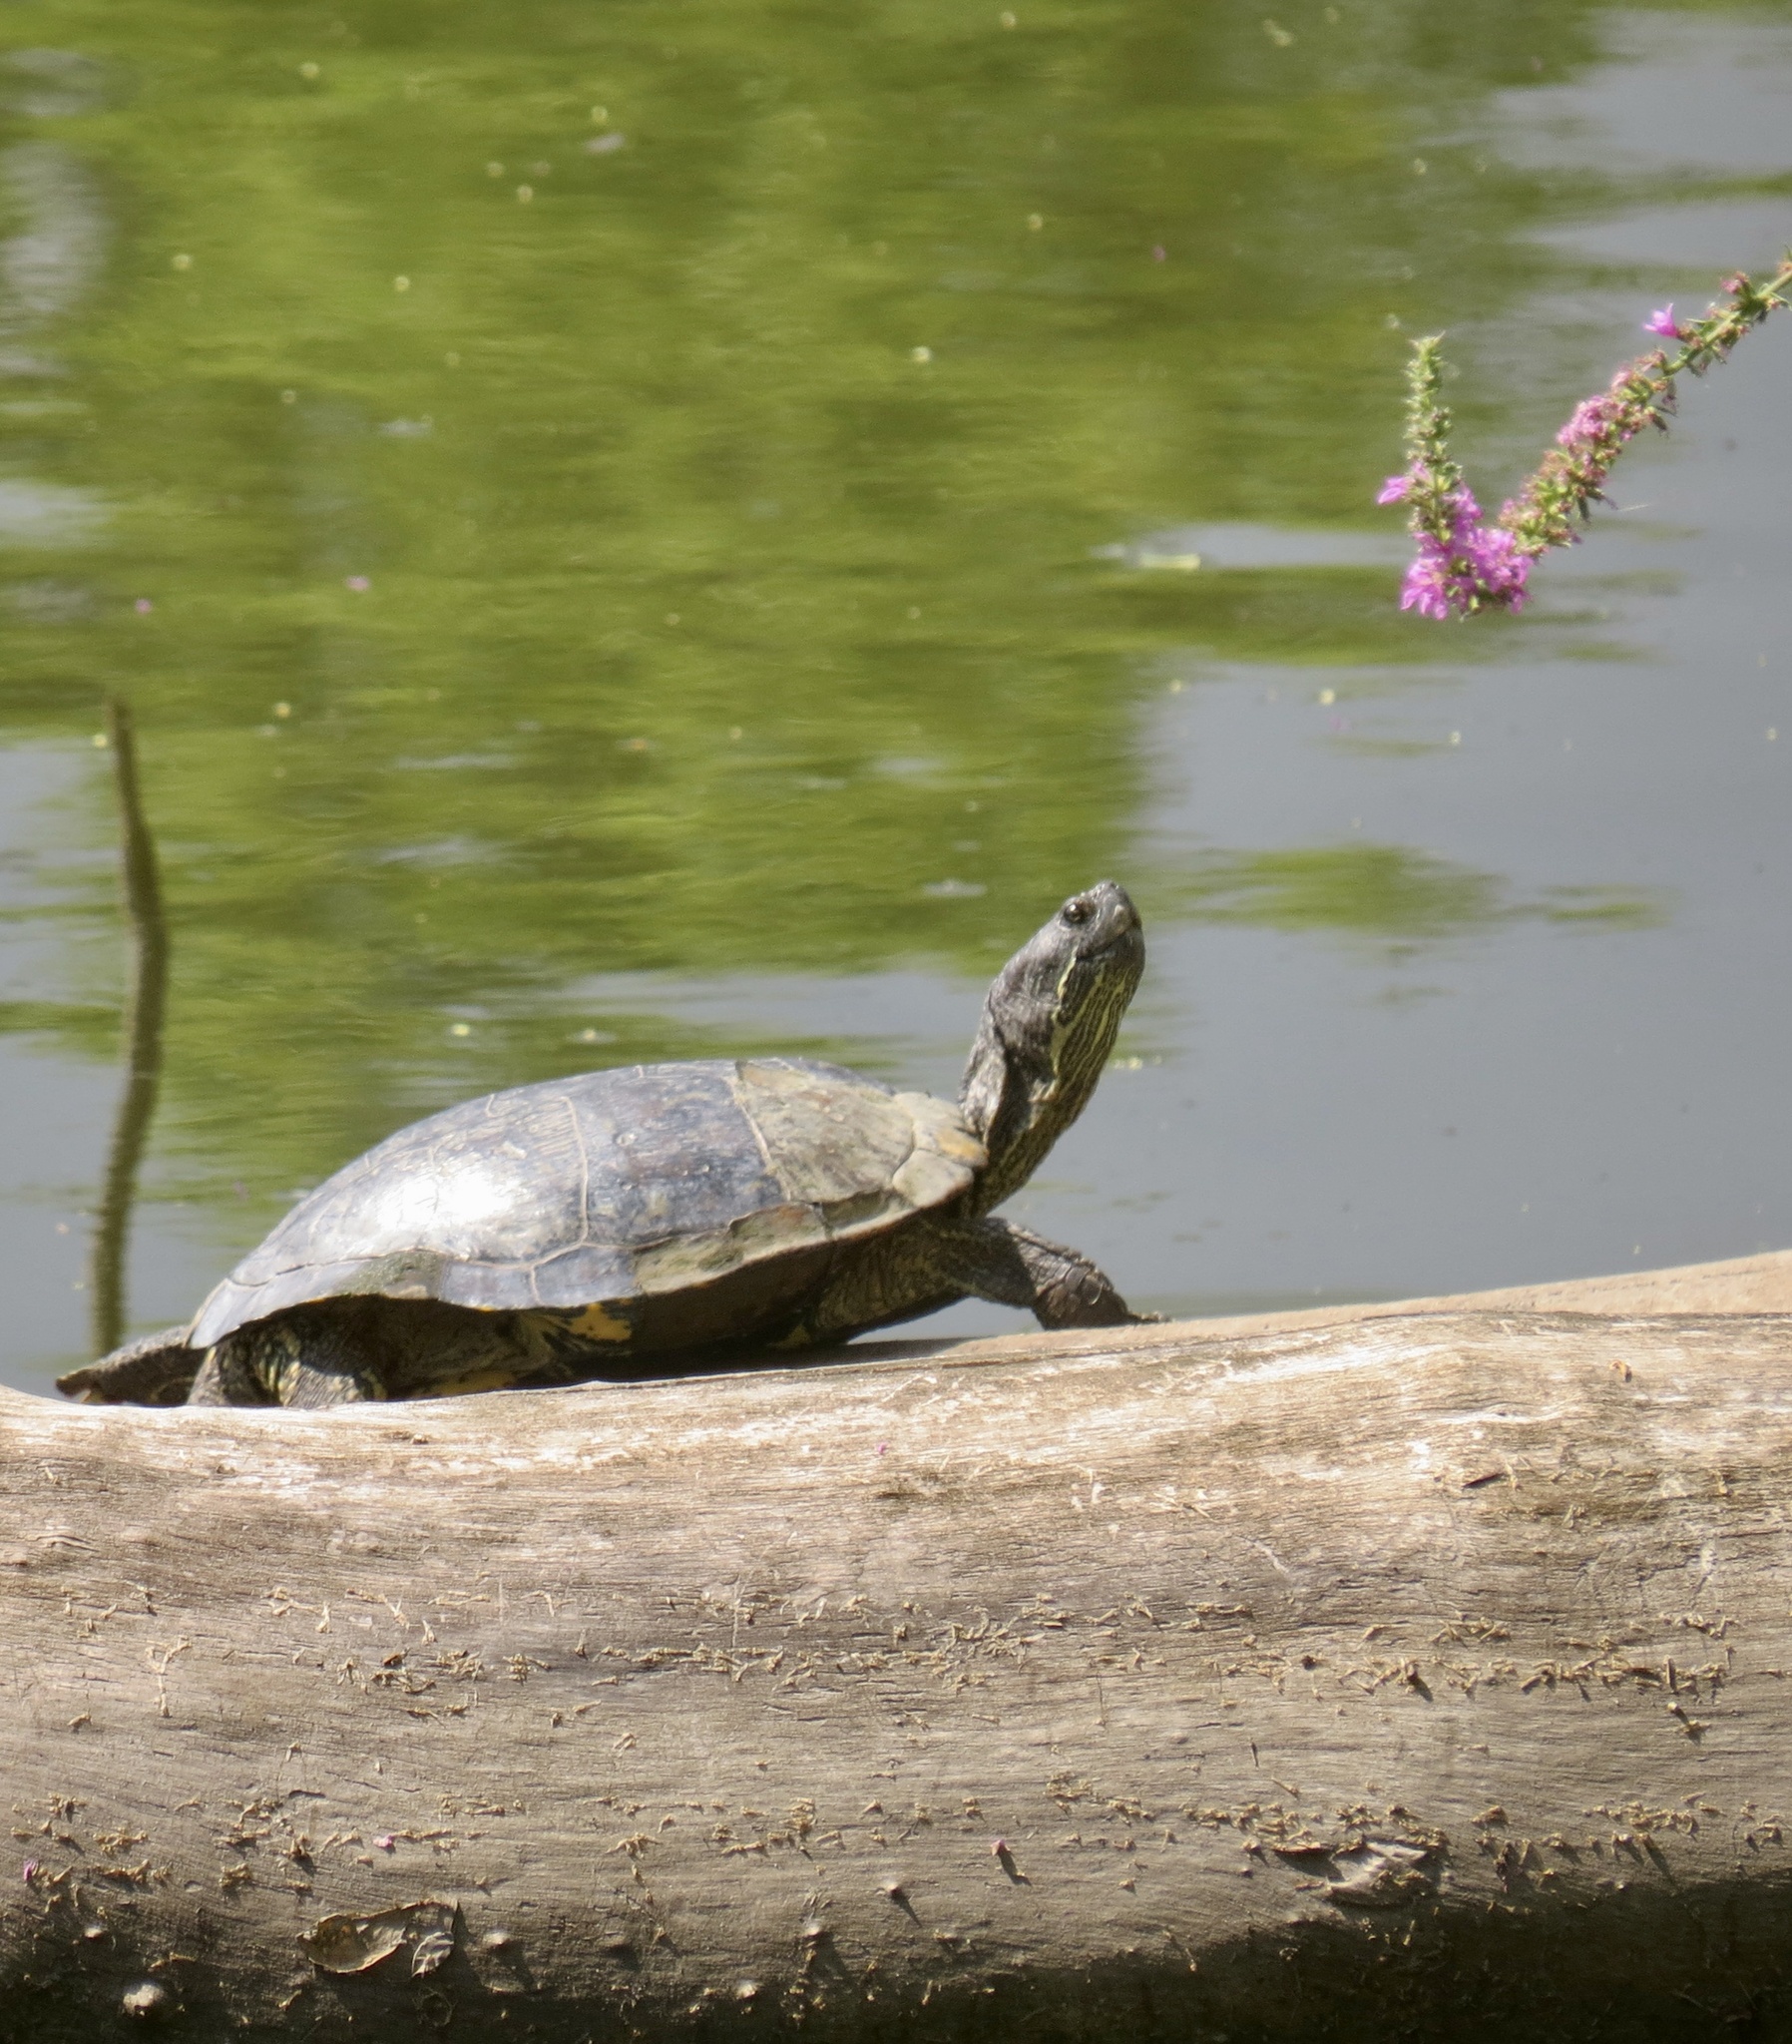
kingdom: Animalia
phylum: Chordata
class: Testudines
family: Emydidae
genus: Trachemys
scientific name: Trachemys scripta
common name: Slider
